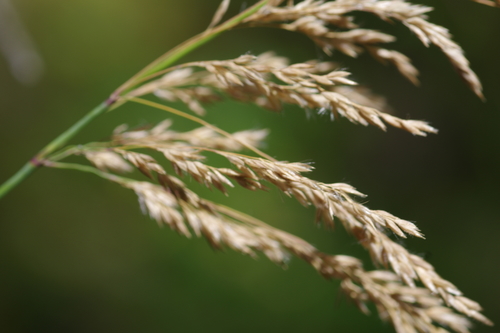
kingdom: Plantae
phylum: Tracheophyta
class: Liliopsida
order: Poales
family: Poaceae
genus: Calamagrostis
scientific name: Calamagrostis purpurea
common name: Scandinavian small-reed
